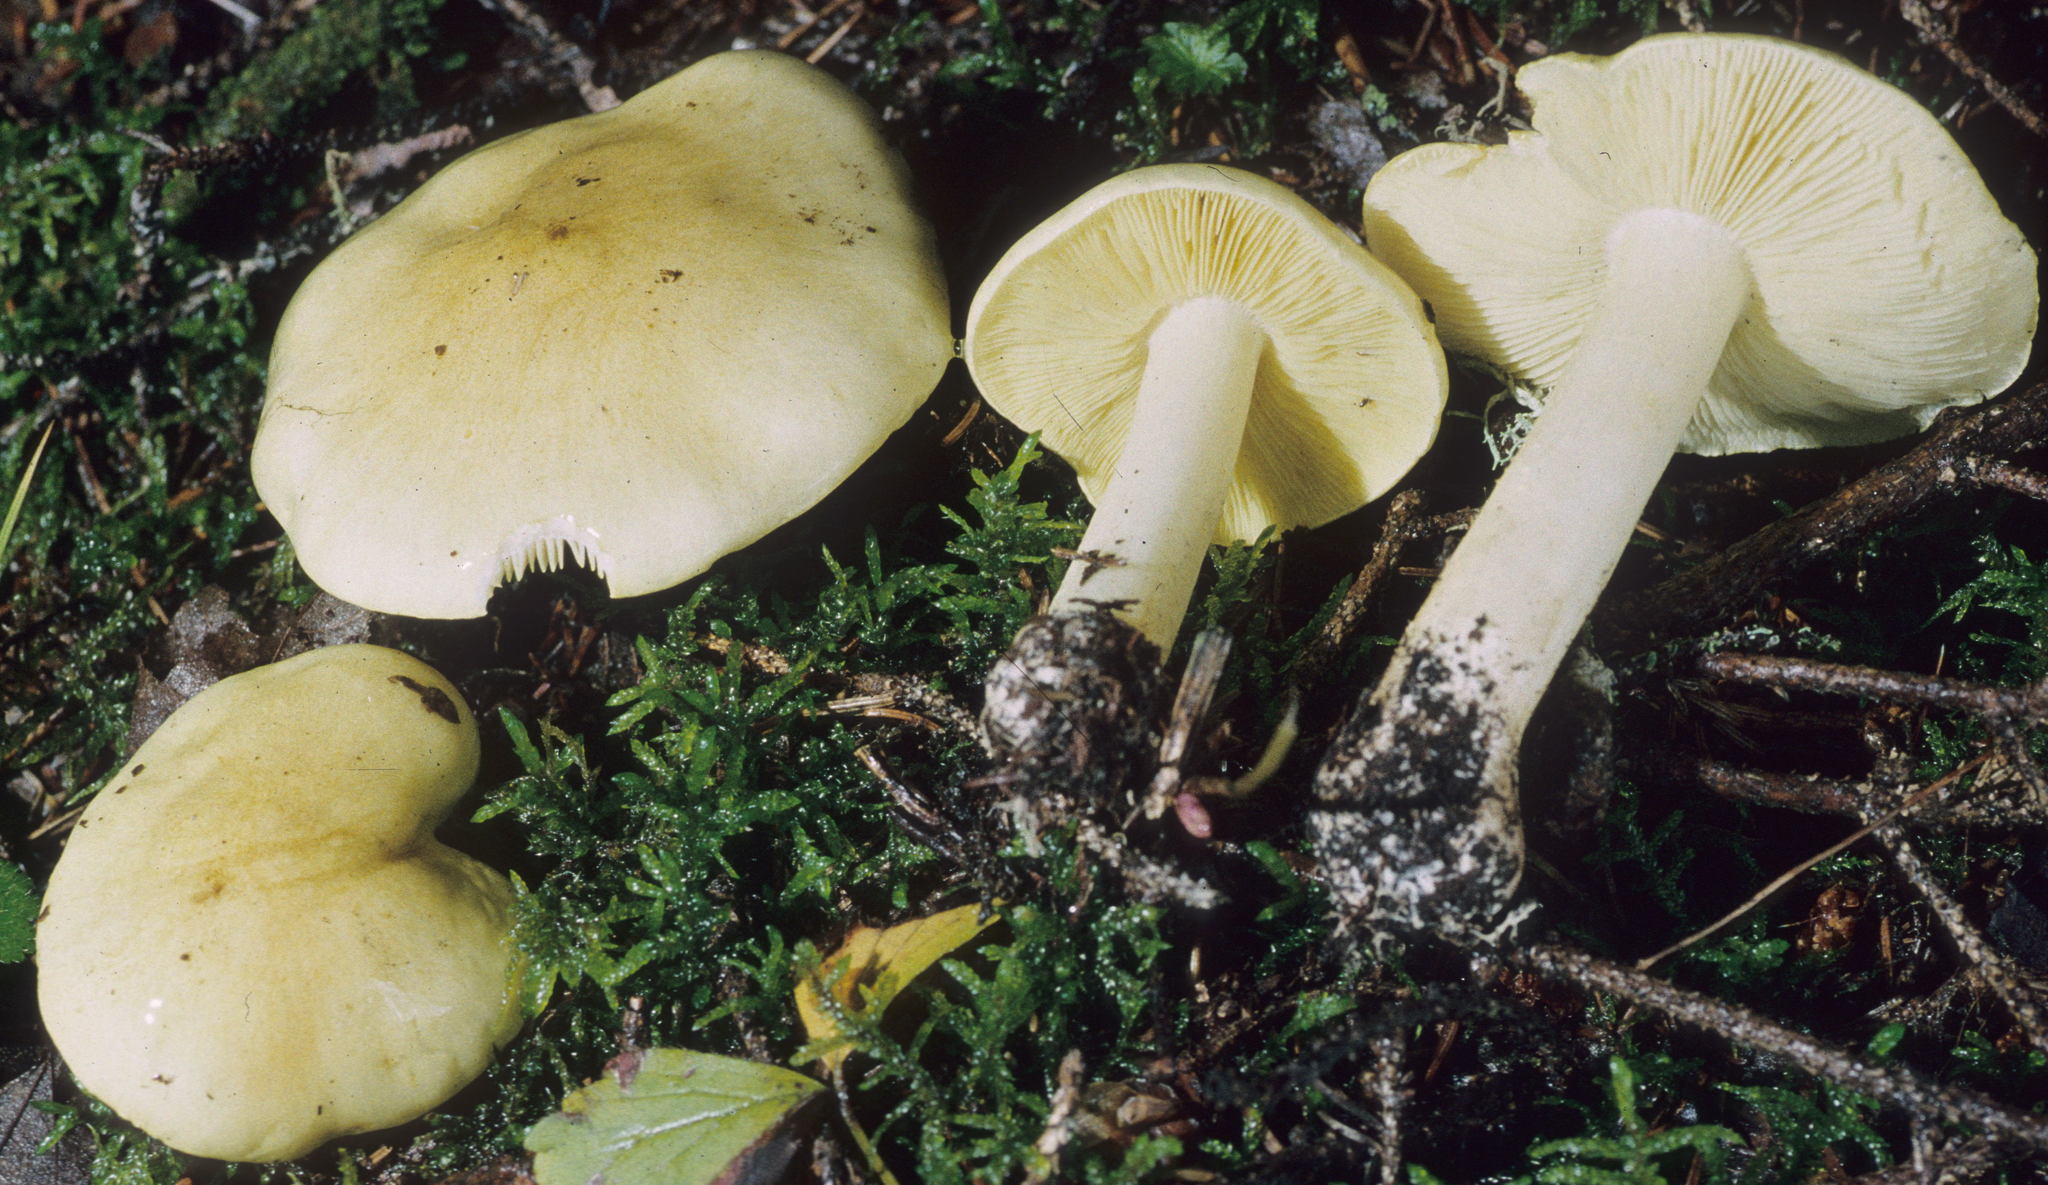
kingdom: Fungi
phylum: Basidiomycota
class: Agaricomycetes
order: Agaricales
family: Tricholomataceae
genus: Tricholoma
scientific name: Tricholoma intermedium
